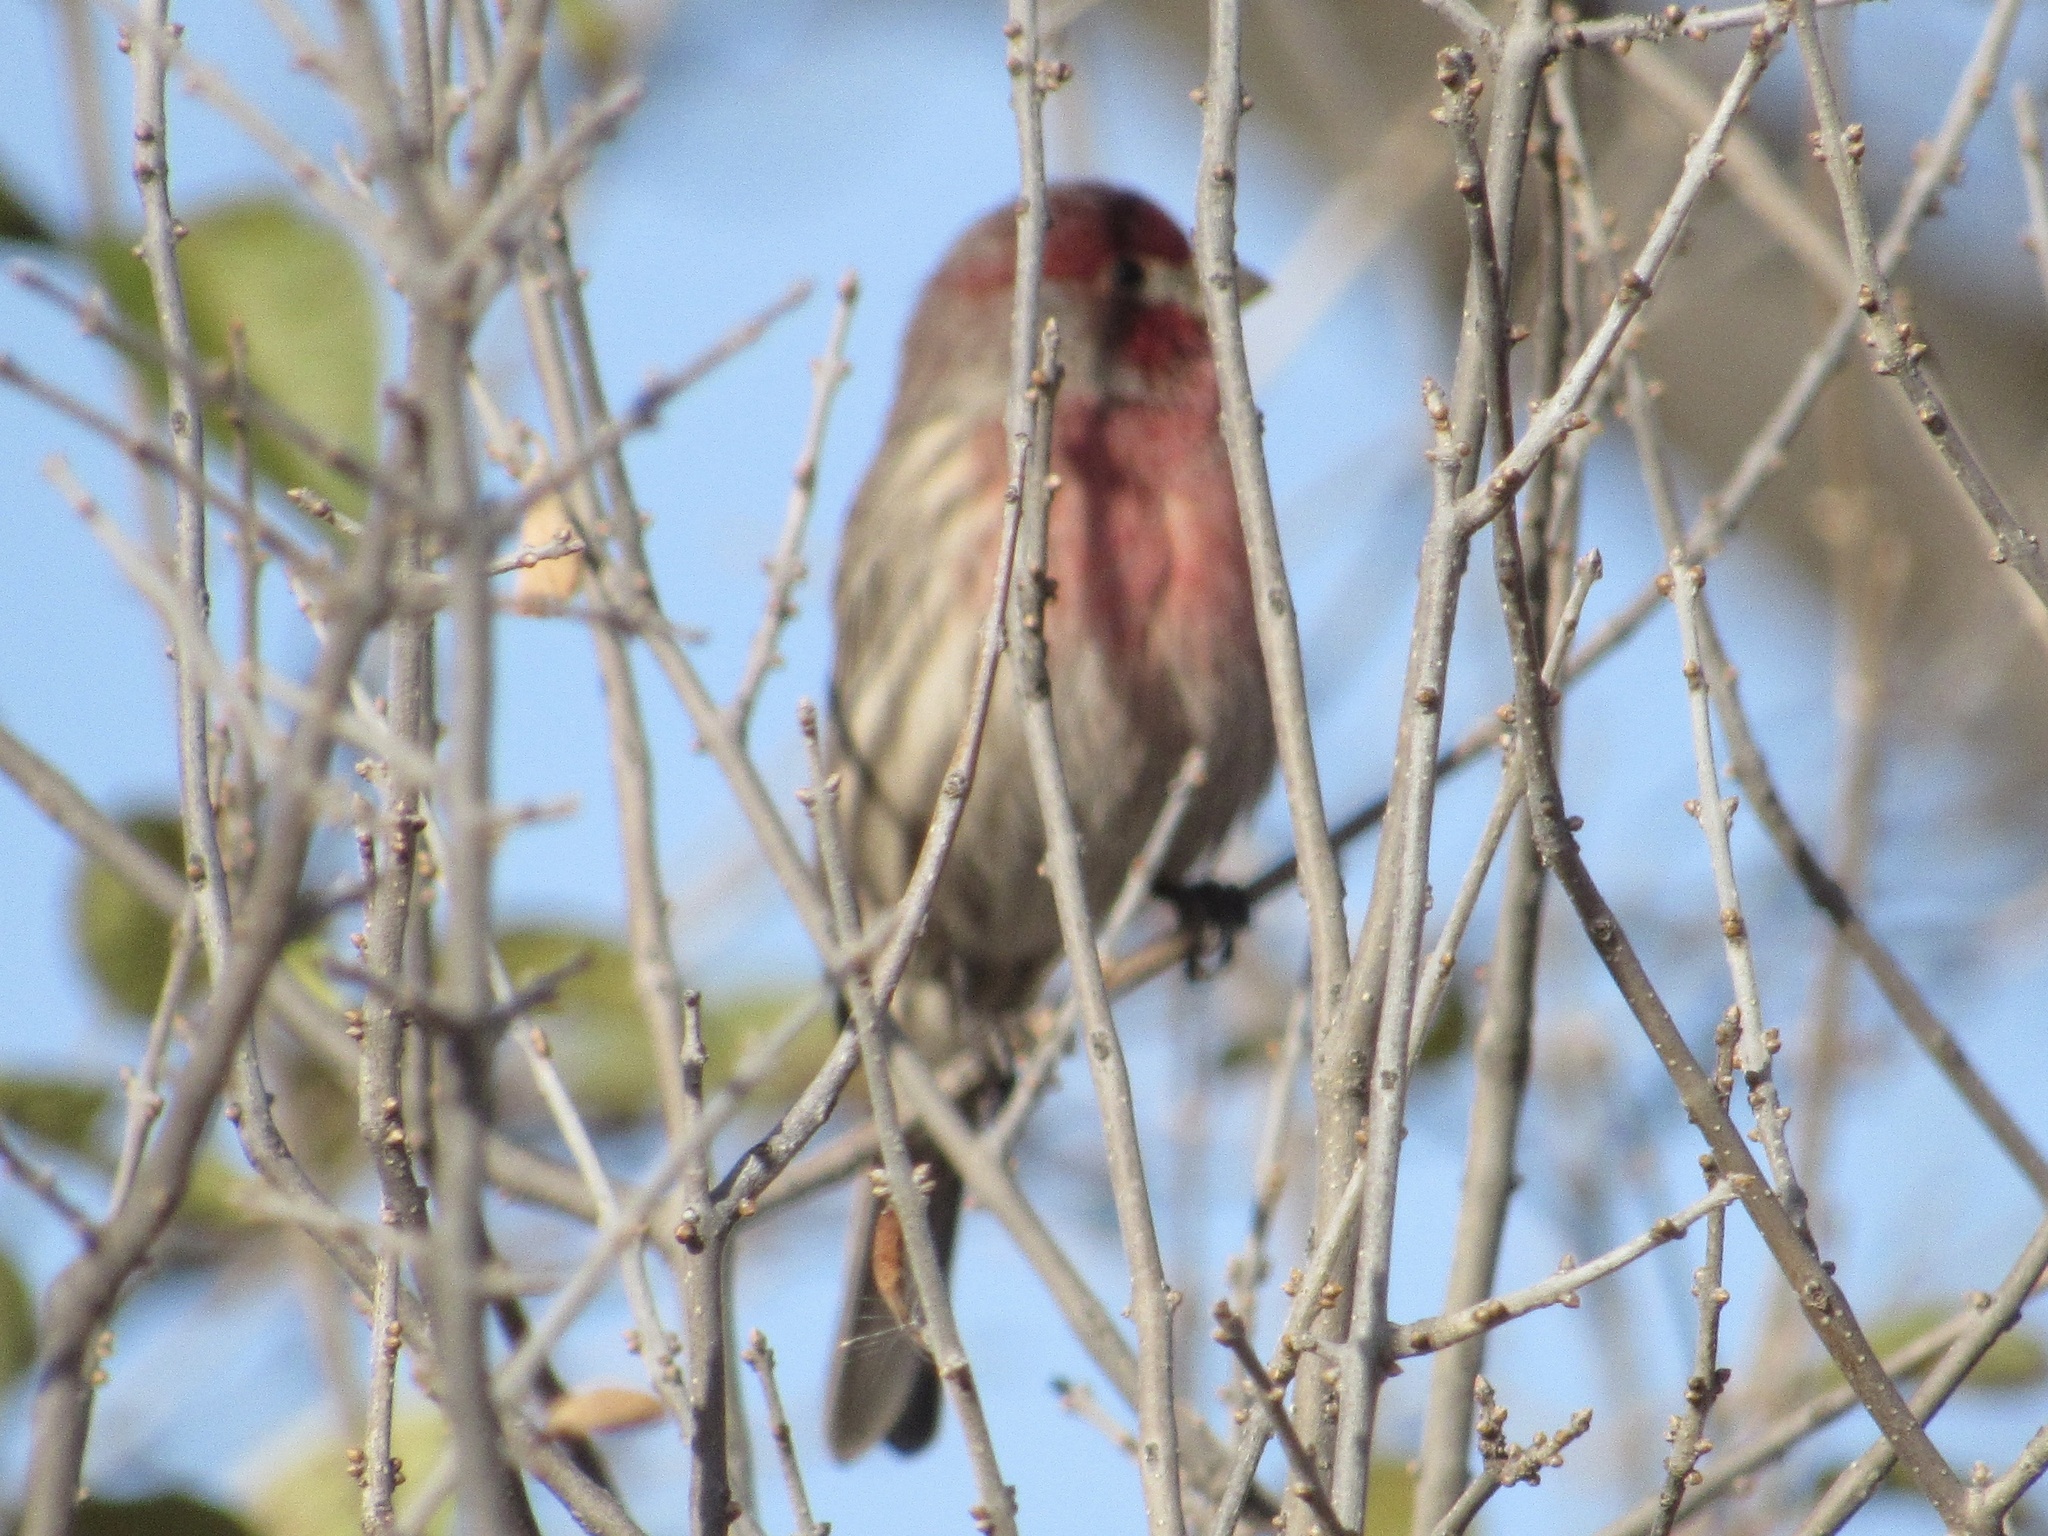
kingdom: Animalia
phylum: Chordata
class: Aves
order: Passeriformes
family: Fringillidae
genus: Haemorhous
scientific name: Haemorhous mexicanus
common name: House finch
